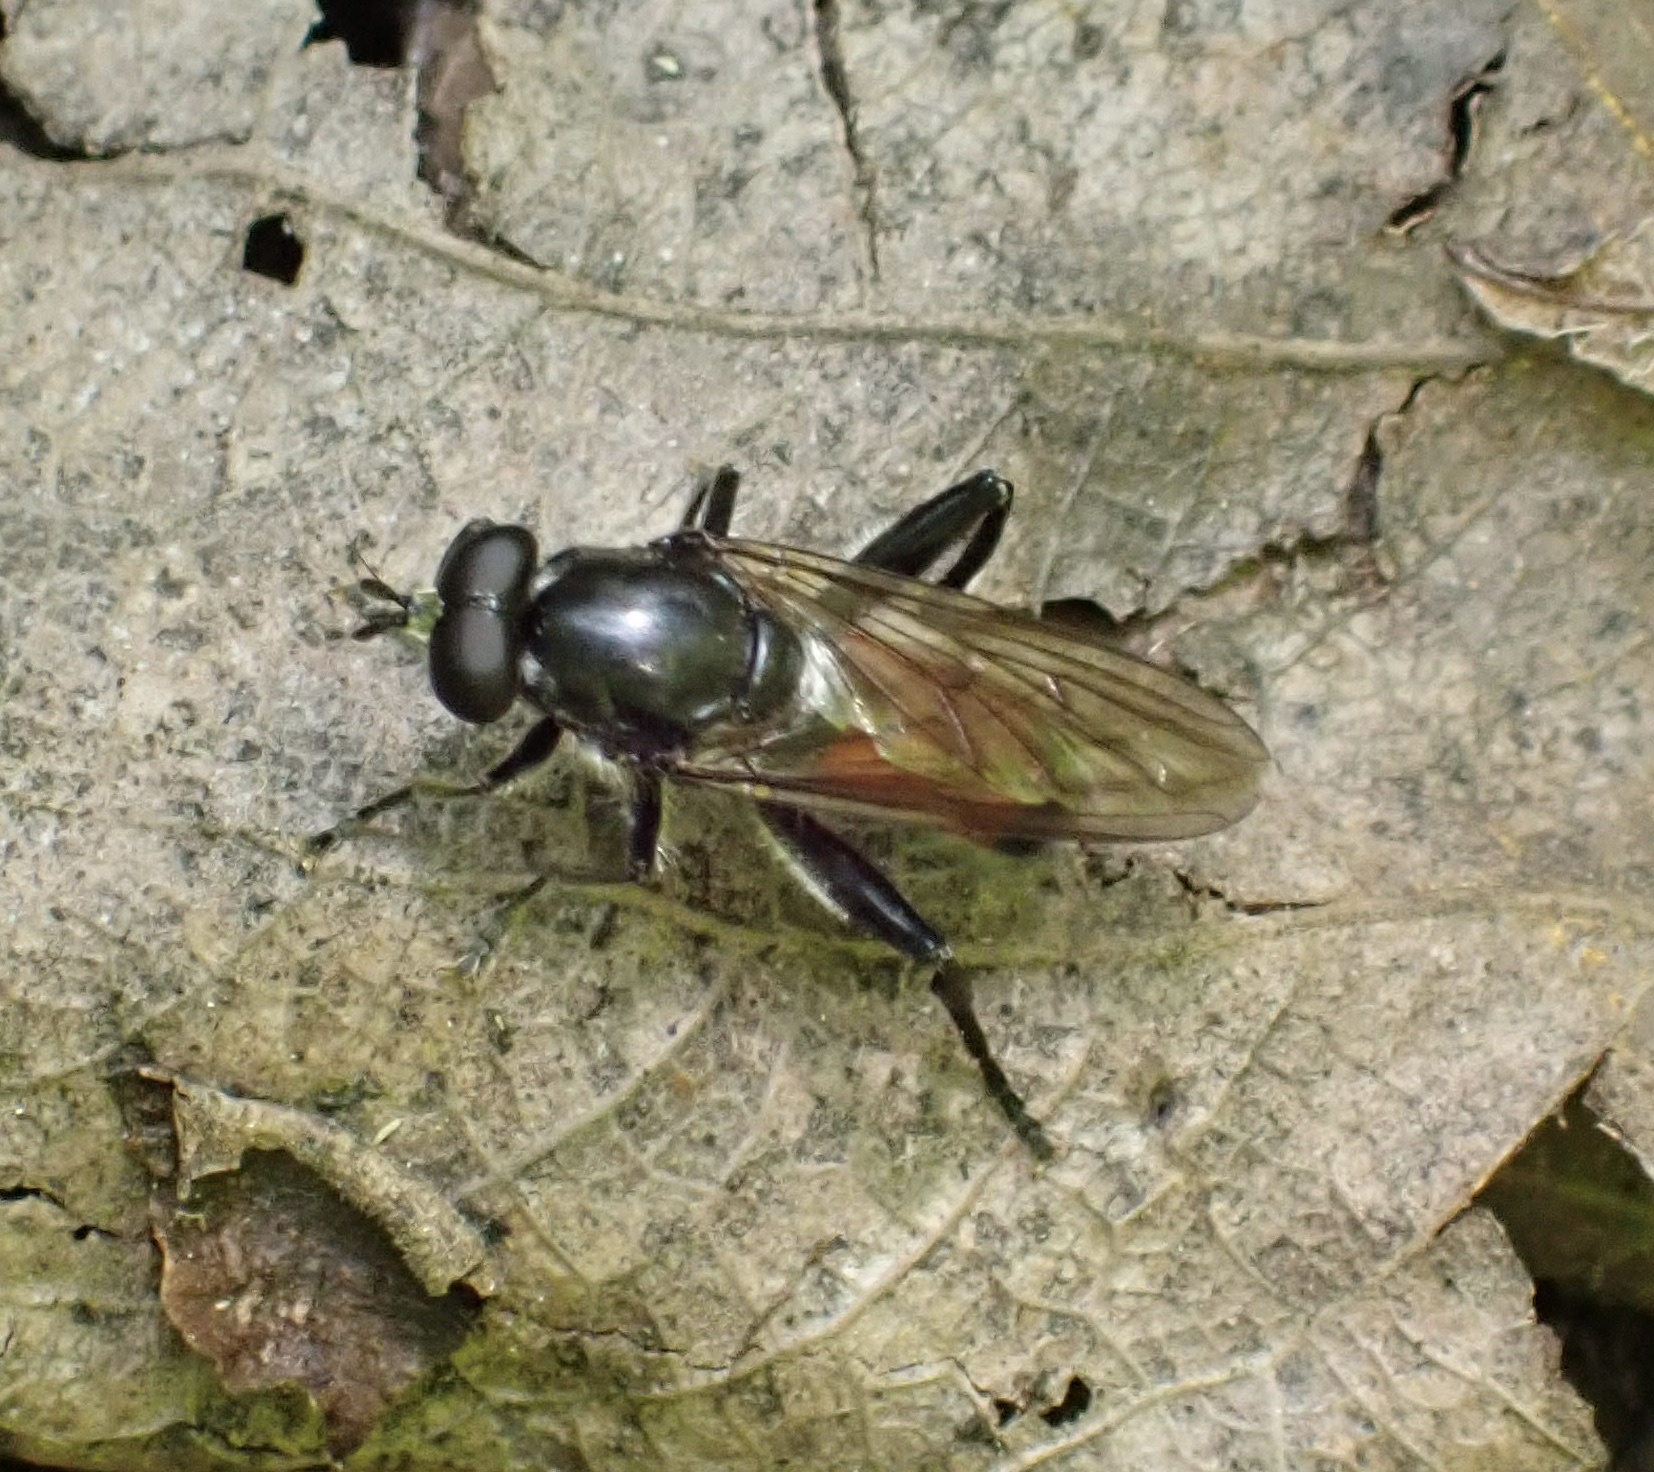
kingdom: Animalia
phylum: Arthropoda
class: Insecta
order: Diptera
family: Syrphidae
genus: Brachypalpoides
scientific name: Brachypalpoides lenta
